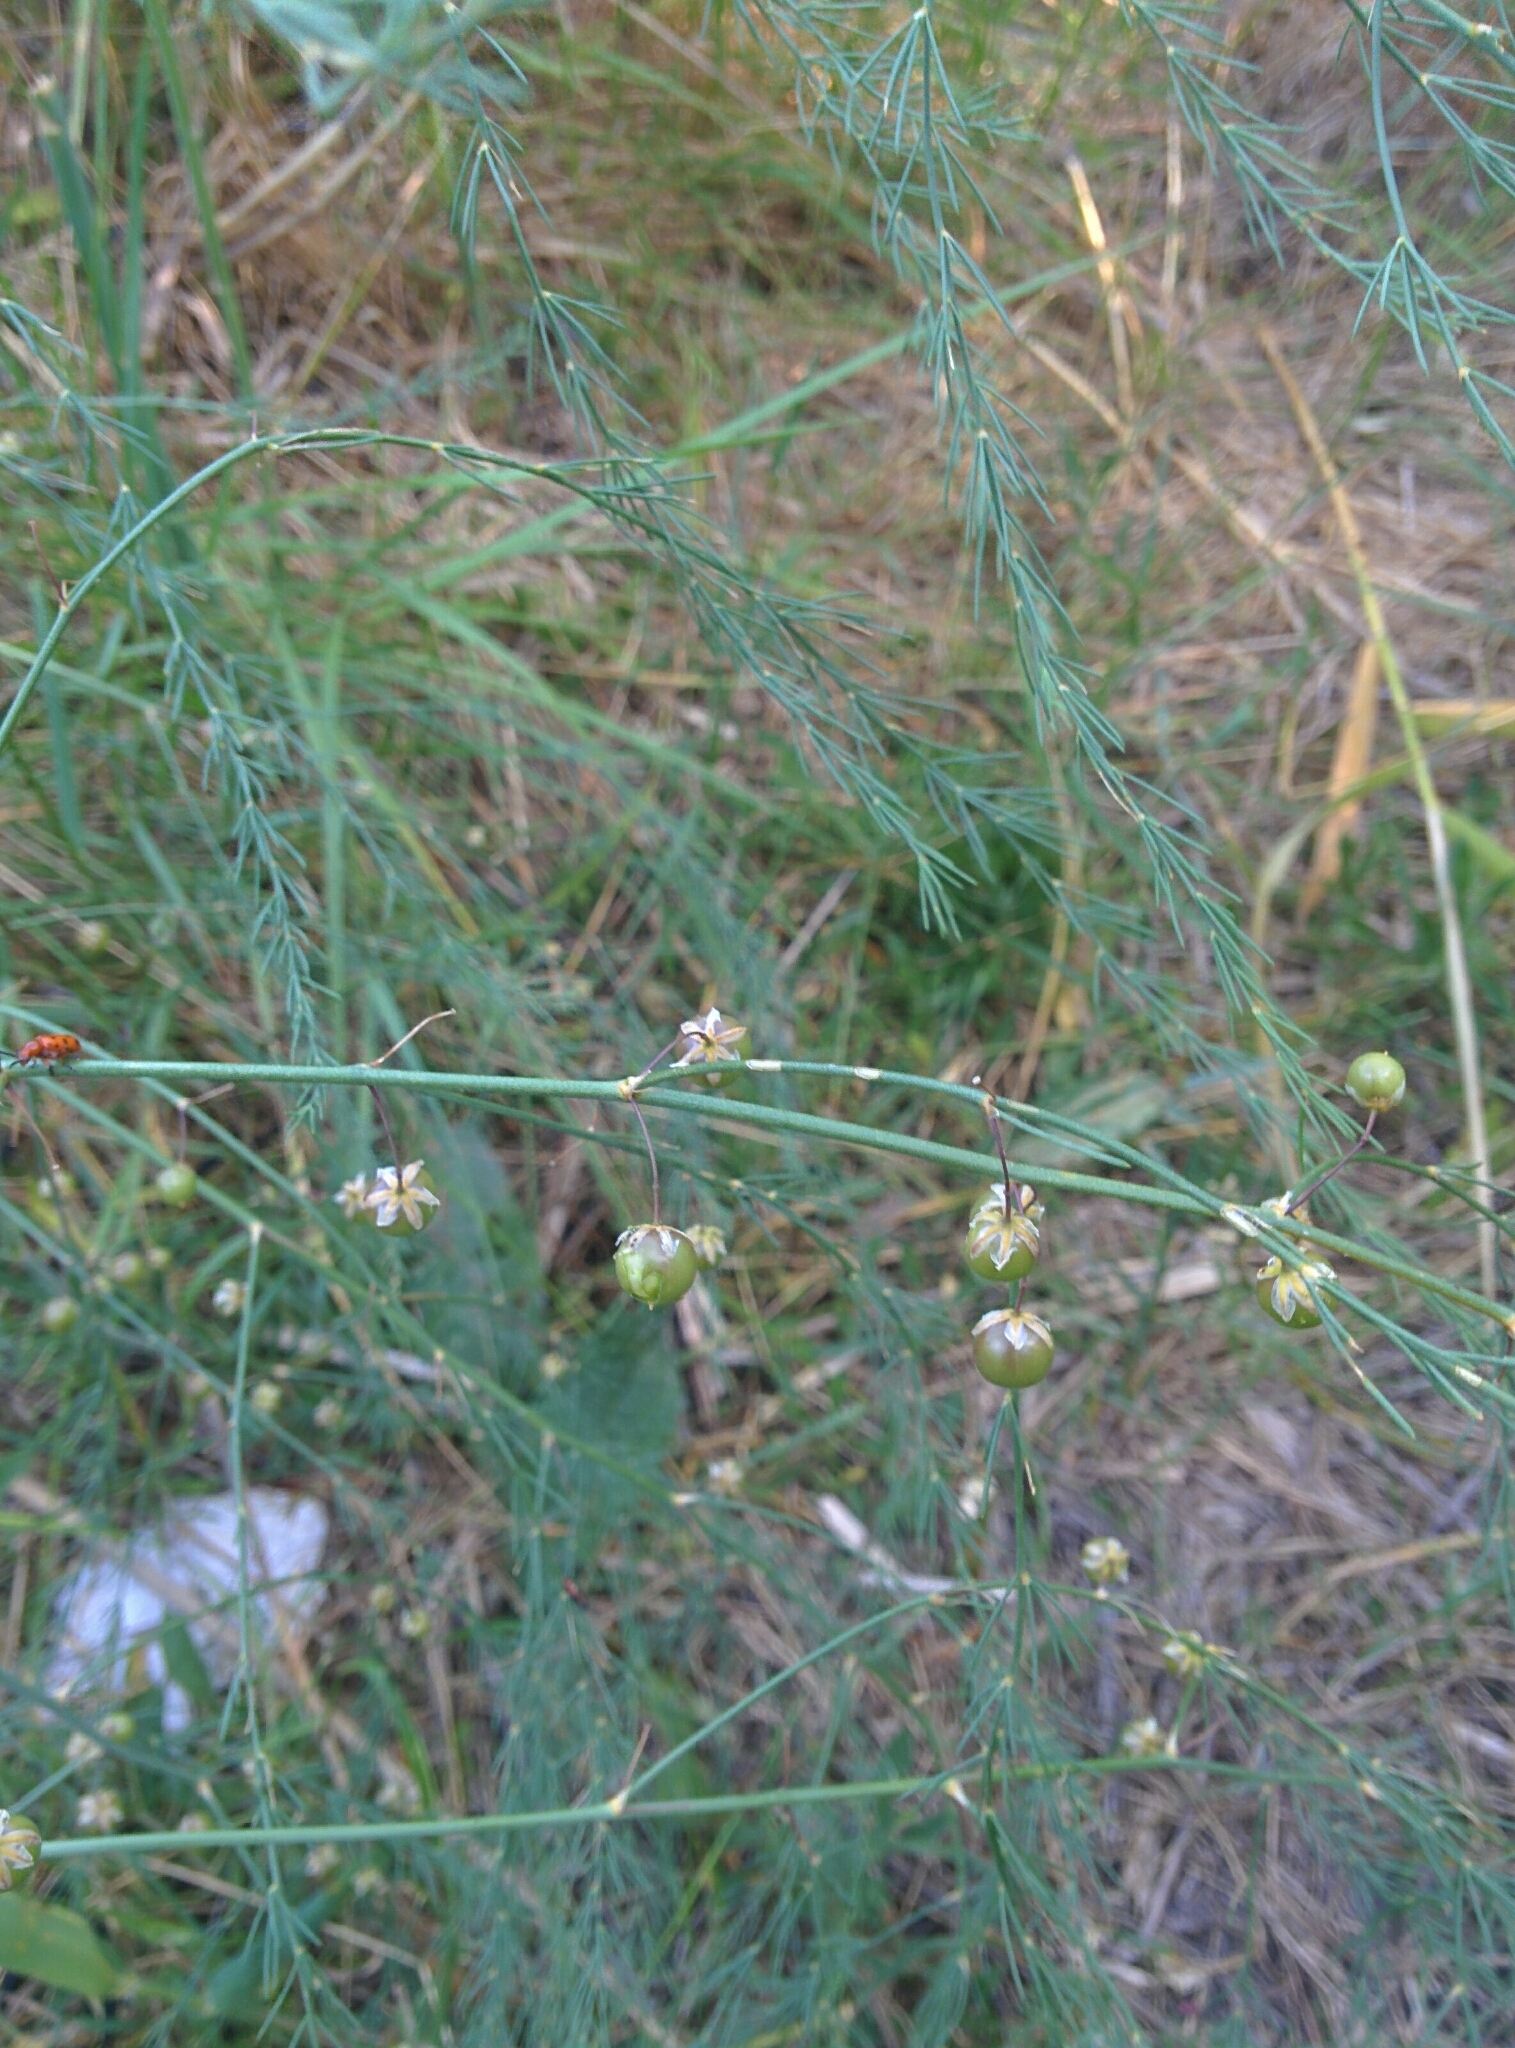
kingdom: Plantae
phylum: Tracheophyta
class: Liliopsida
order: Asparagales
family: Asparagaceae
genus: Asparagus
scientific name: Asparagus officinalis
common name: Garden asparagus
